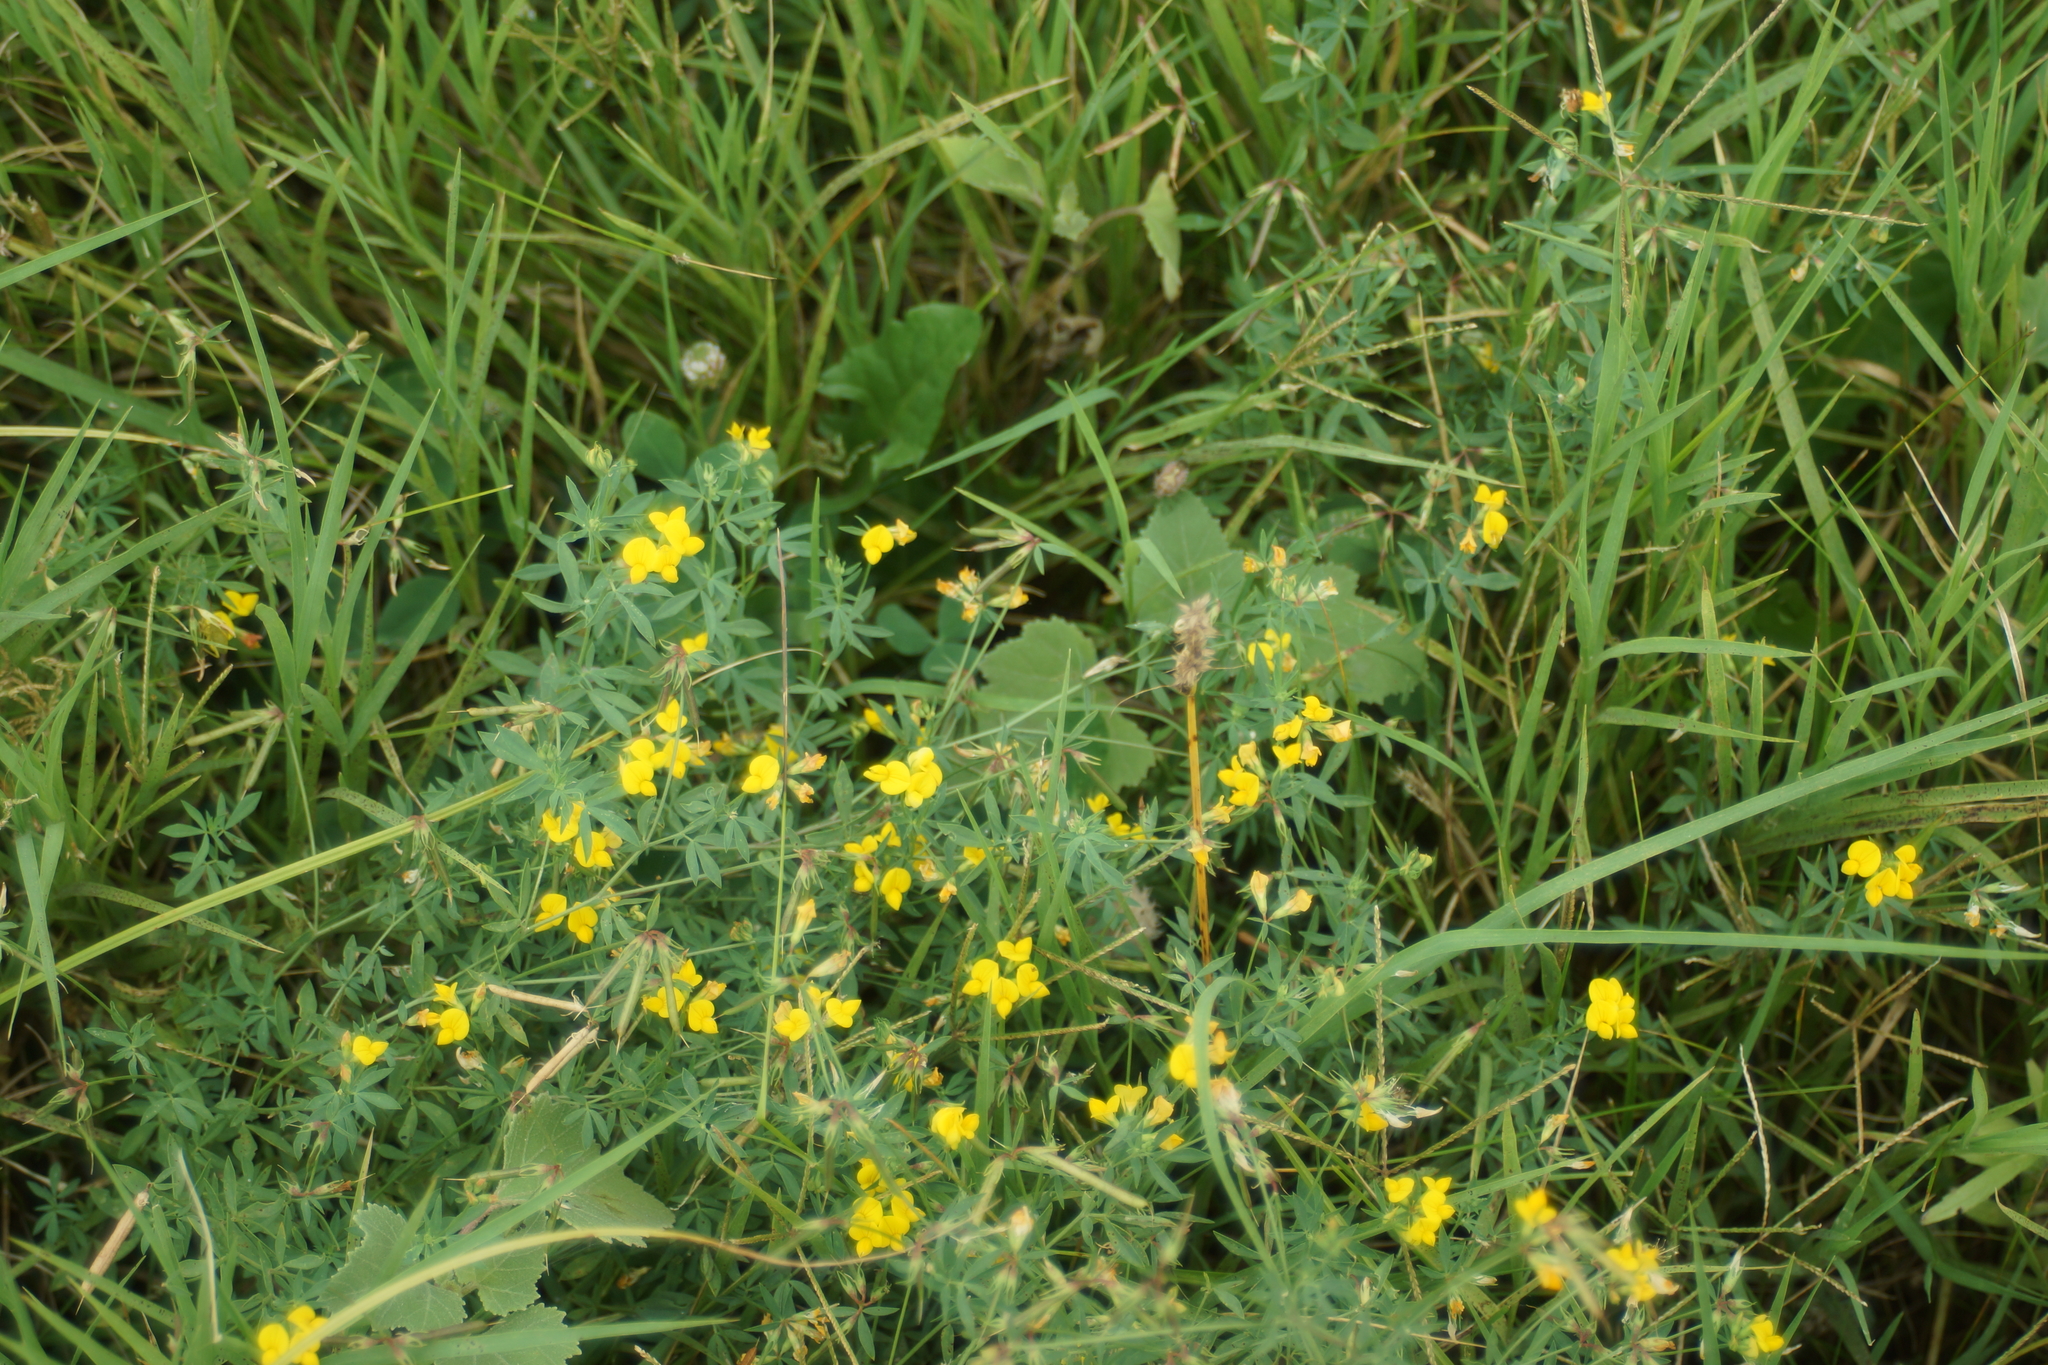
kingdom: Plantae
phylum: Tracheophyta
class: Magnoliopsida
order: Fabales
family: Fabaceae
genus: Lotus
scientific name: Lotus corniculatus
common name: Common bird's-foot-trefoil
